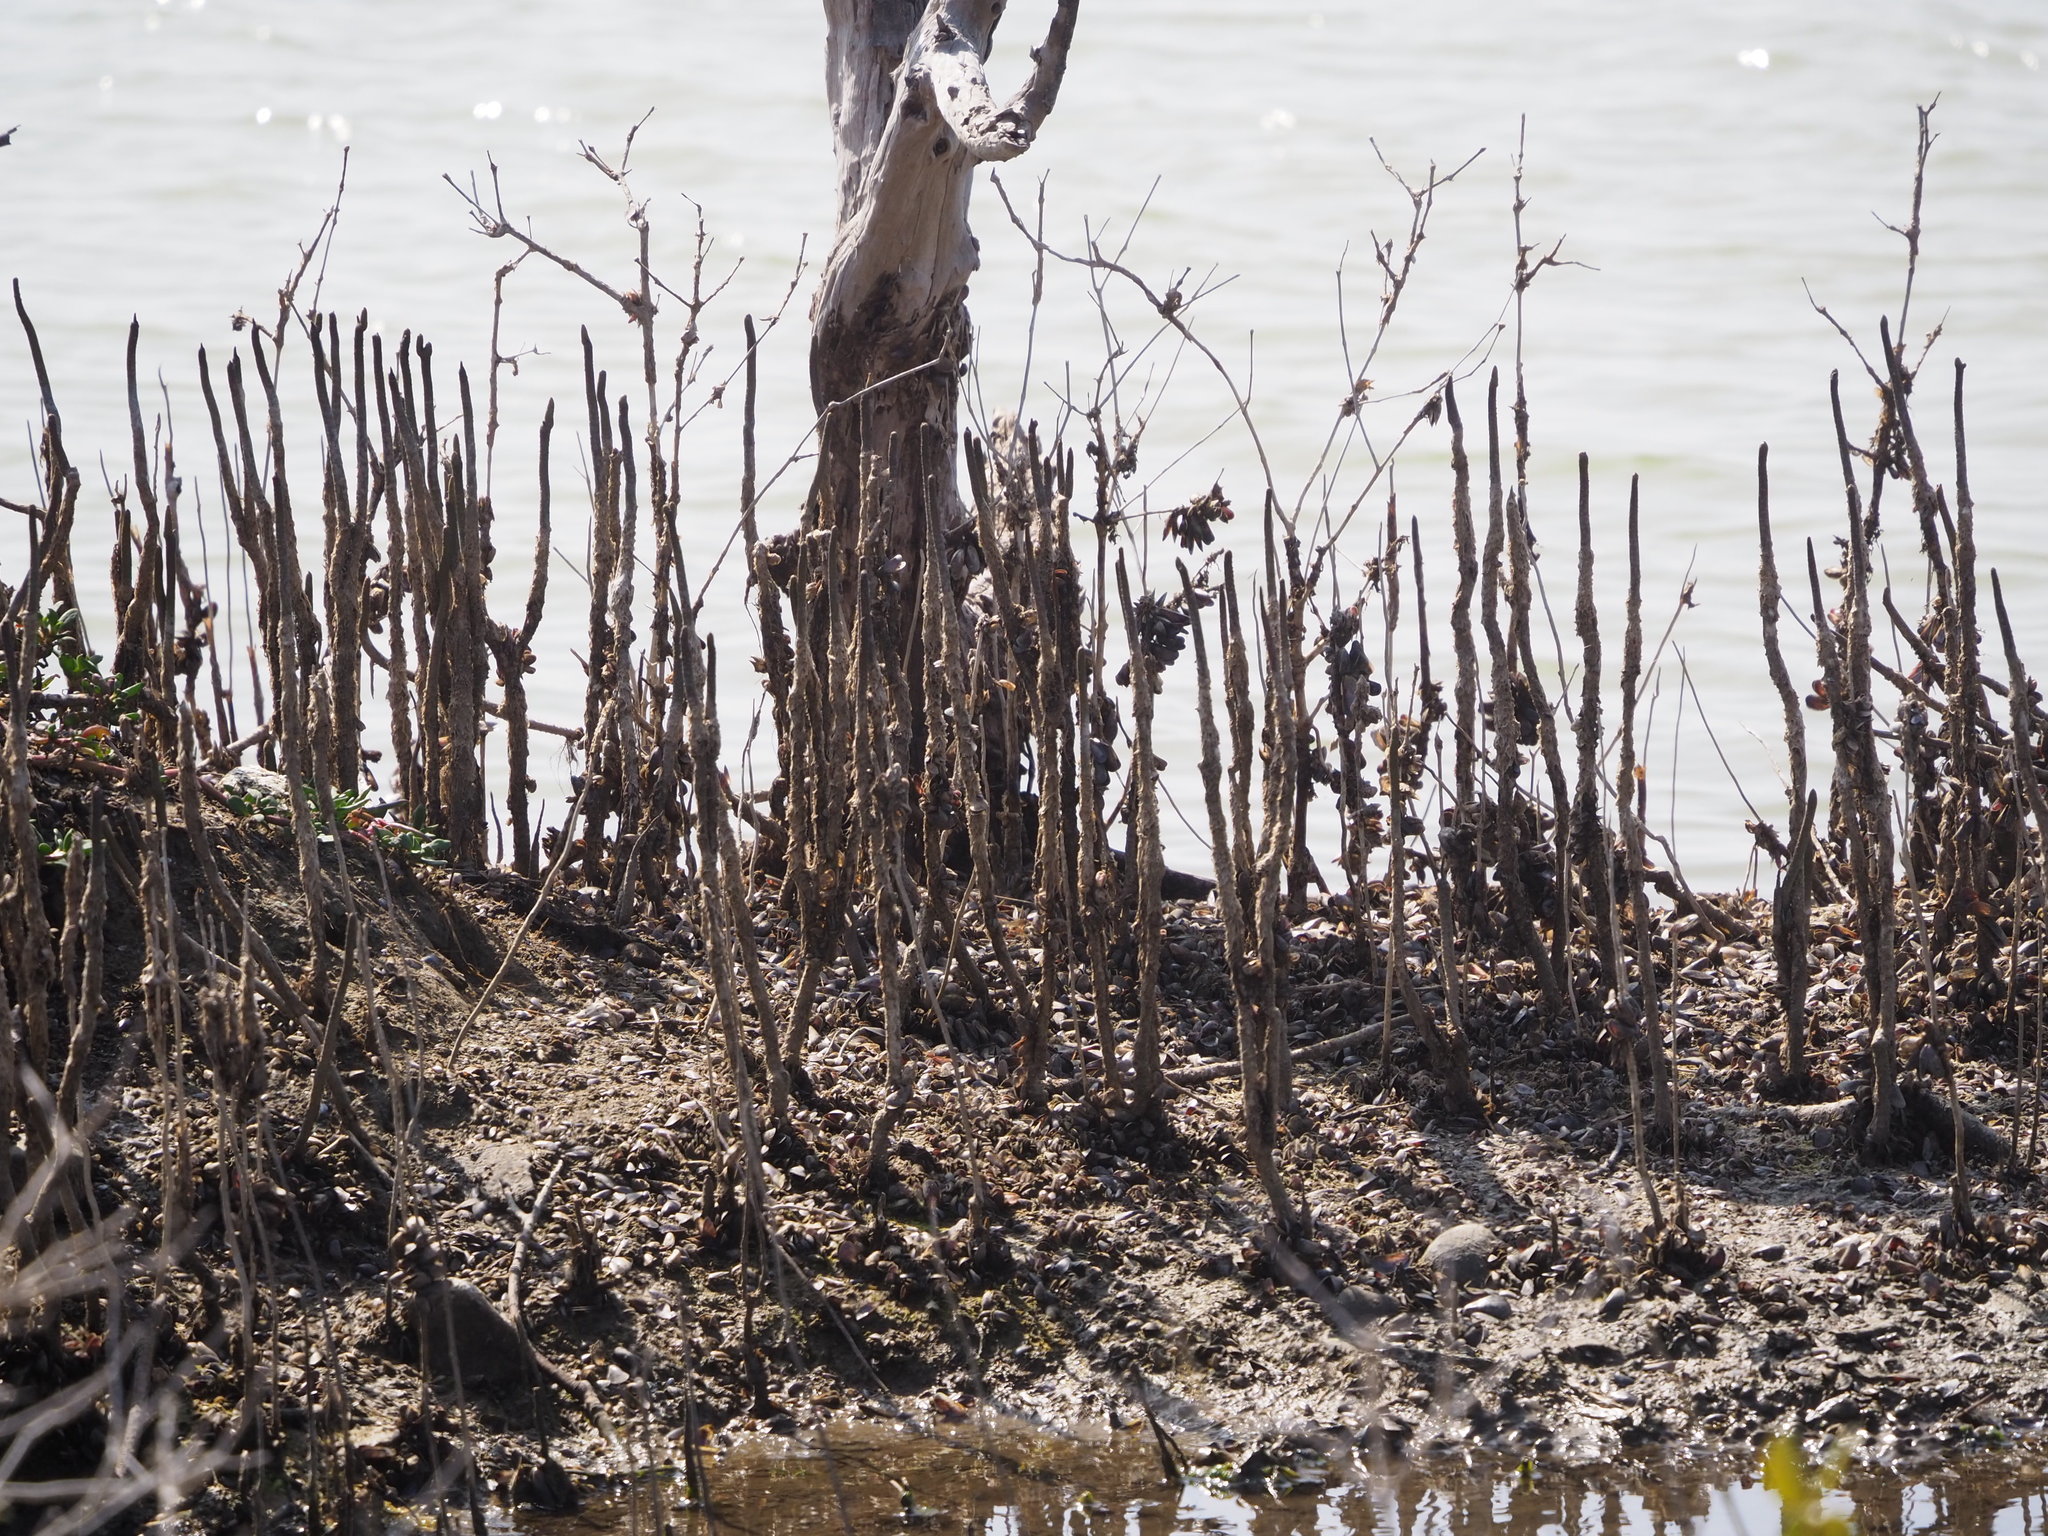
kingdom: Plantae
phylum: Tracheophyta
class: Magnoliopsida
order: Lamiales
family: Acanthaceae
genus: Avicennia
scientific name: Avicennia marina
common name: Gray mangrove
